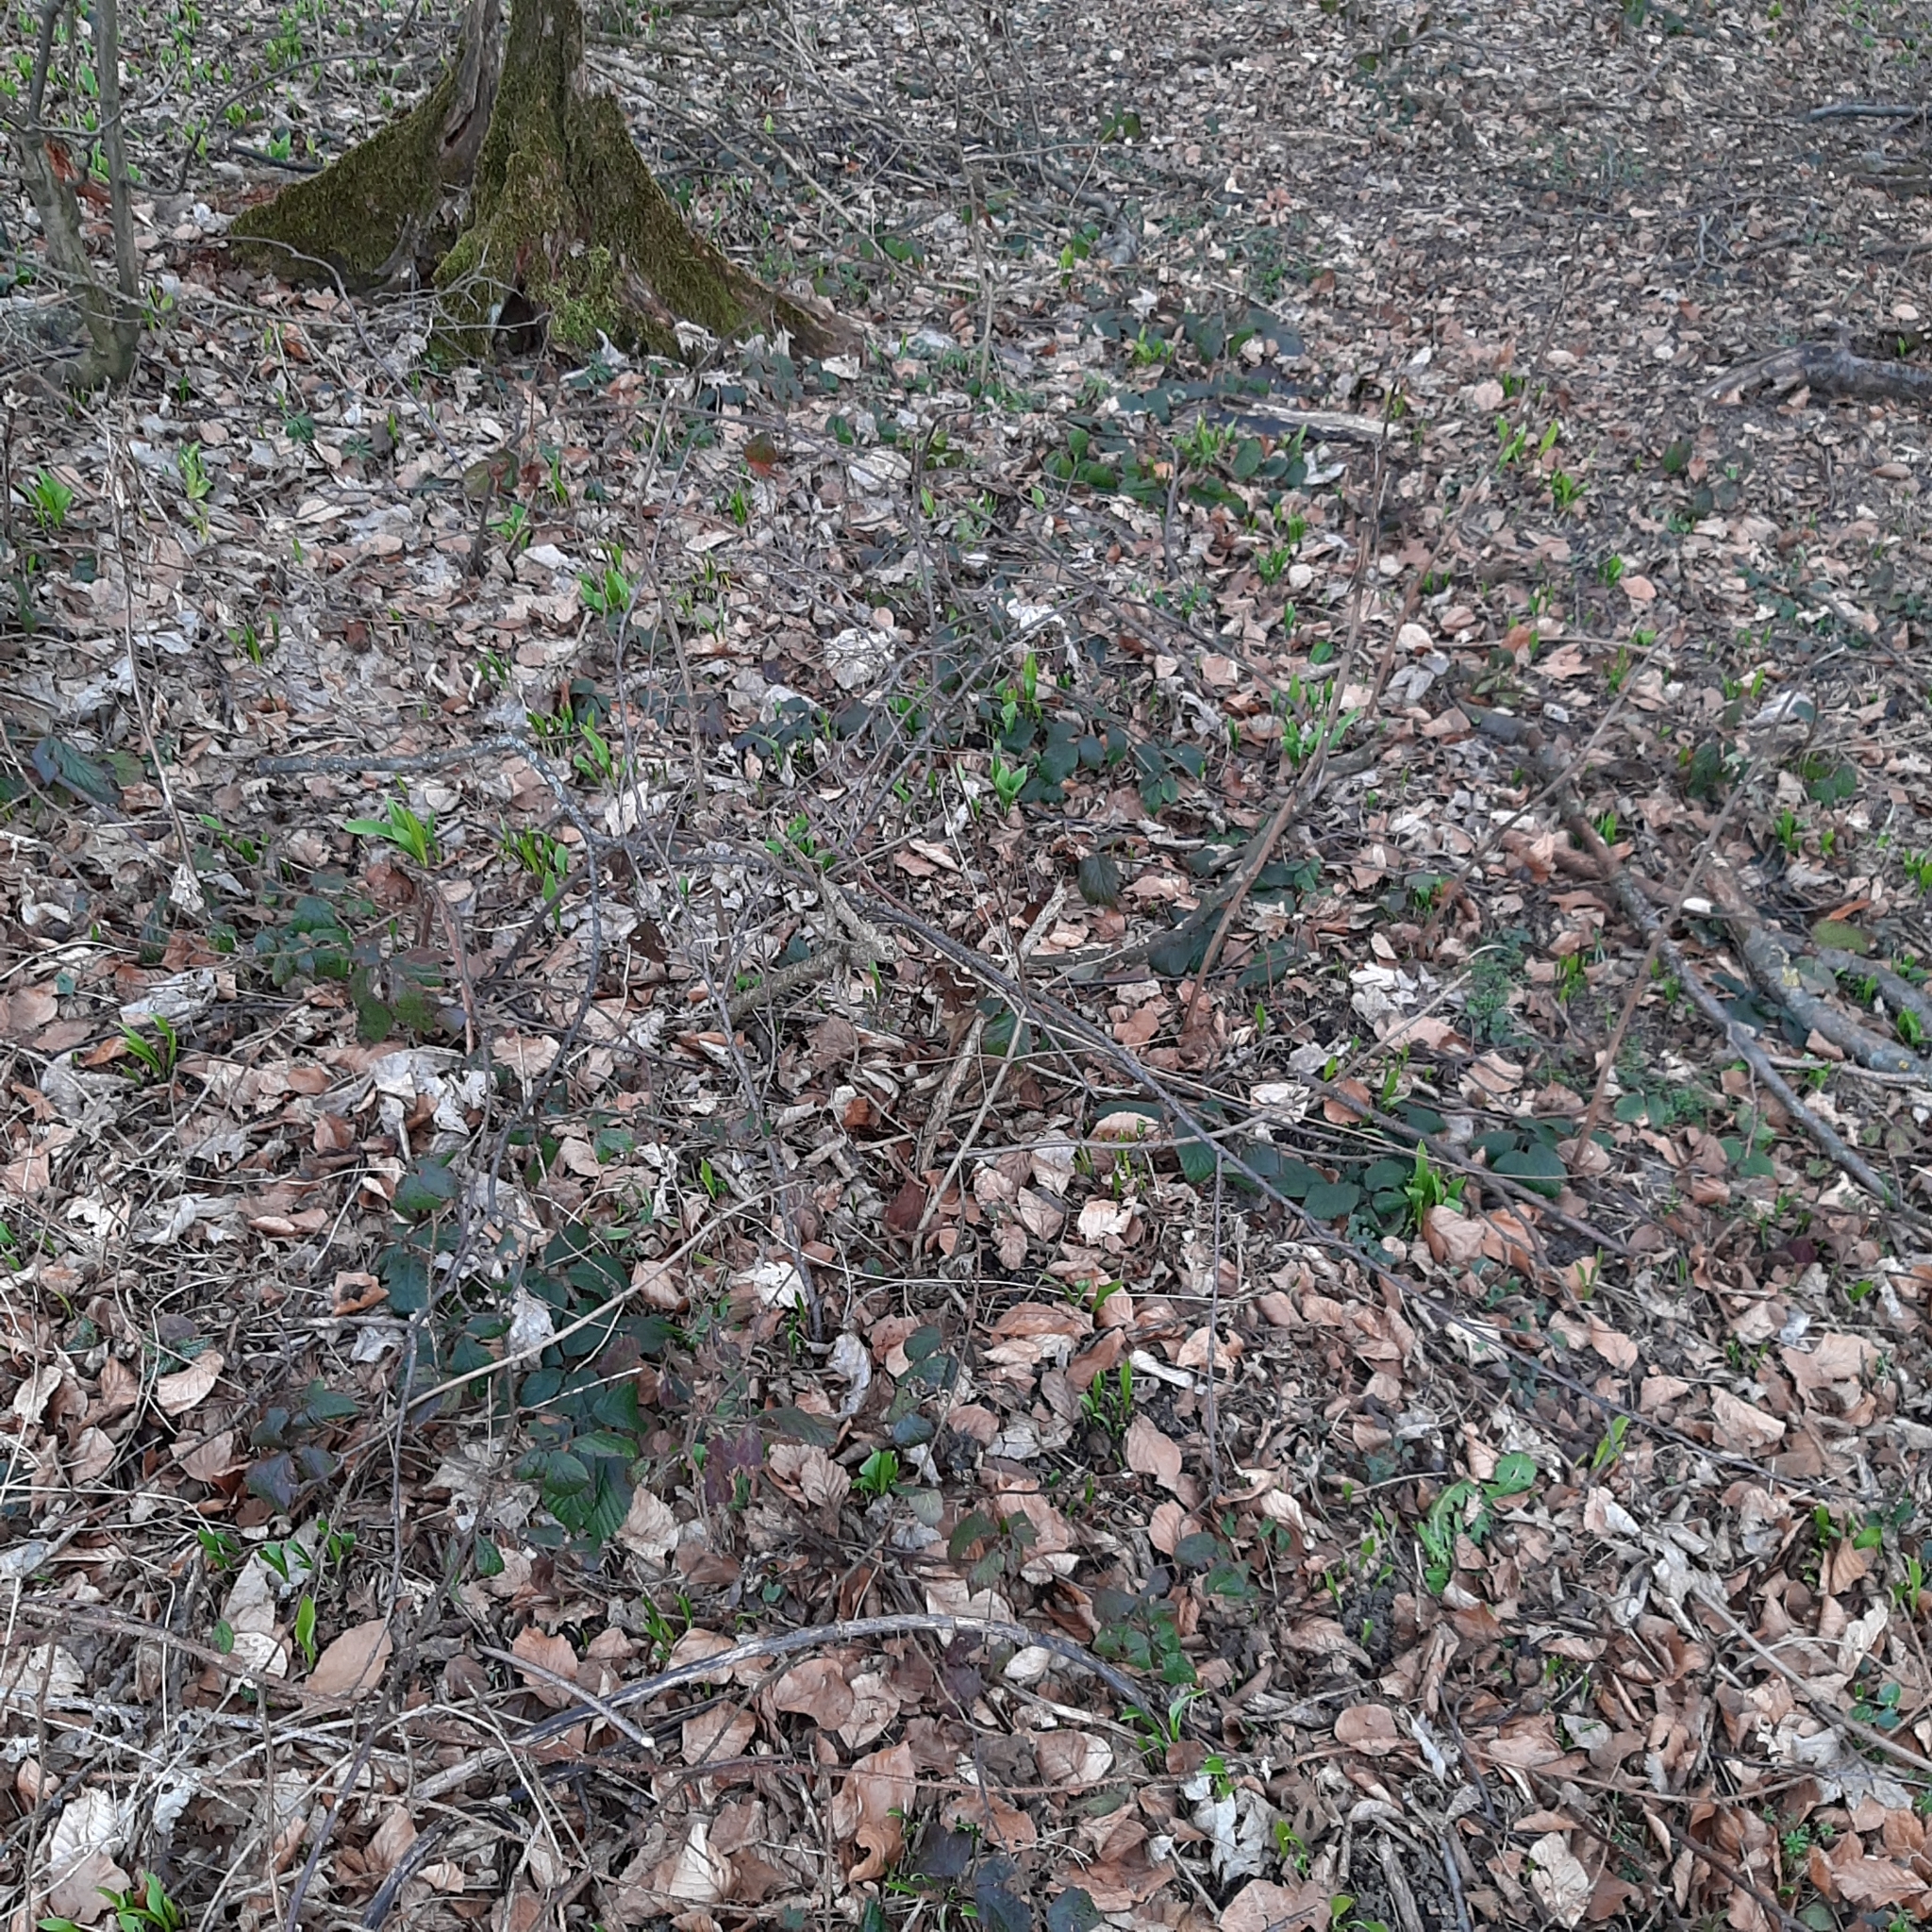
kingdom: Plantae
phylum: Tracheophyta
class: Liliopsida
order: Asparagales
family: Amaryllidaceae
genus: Allium
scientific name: Allium ursinum
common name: Ramsons
